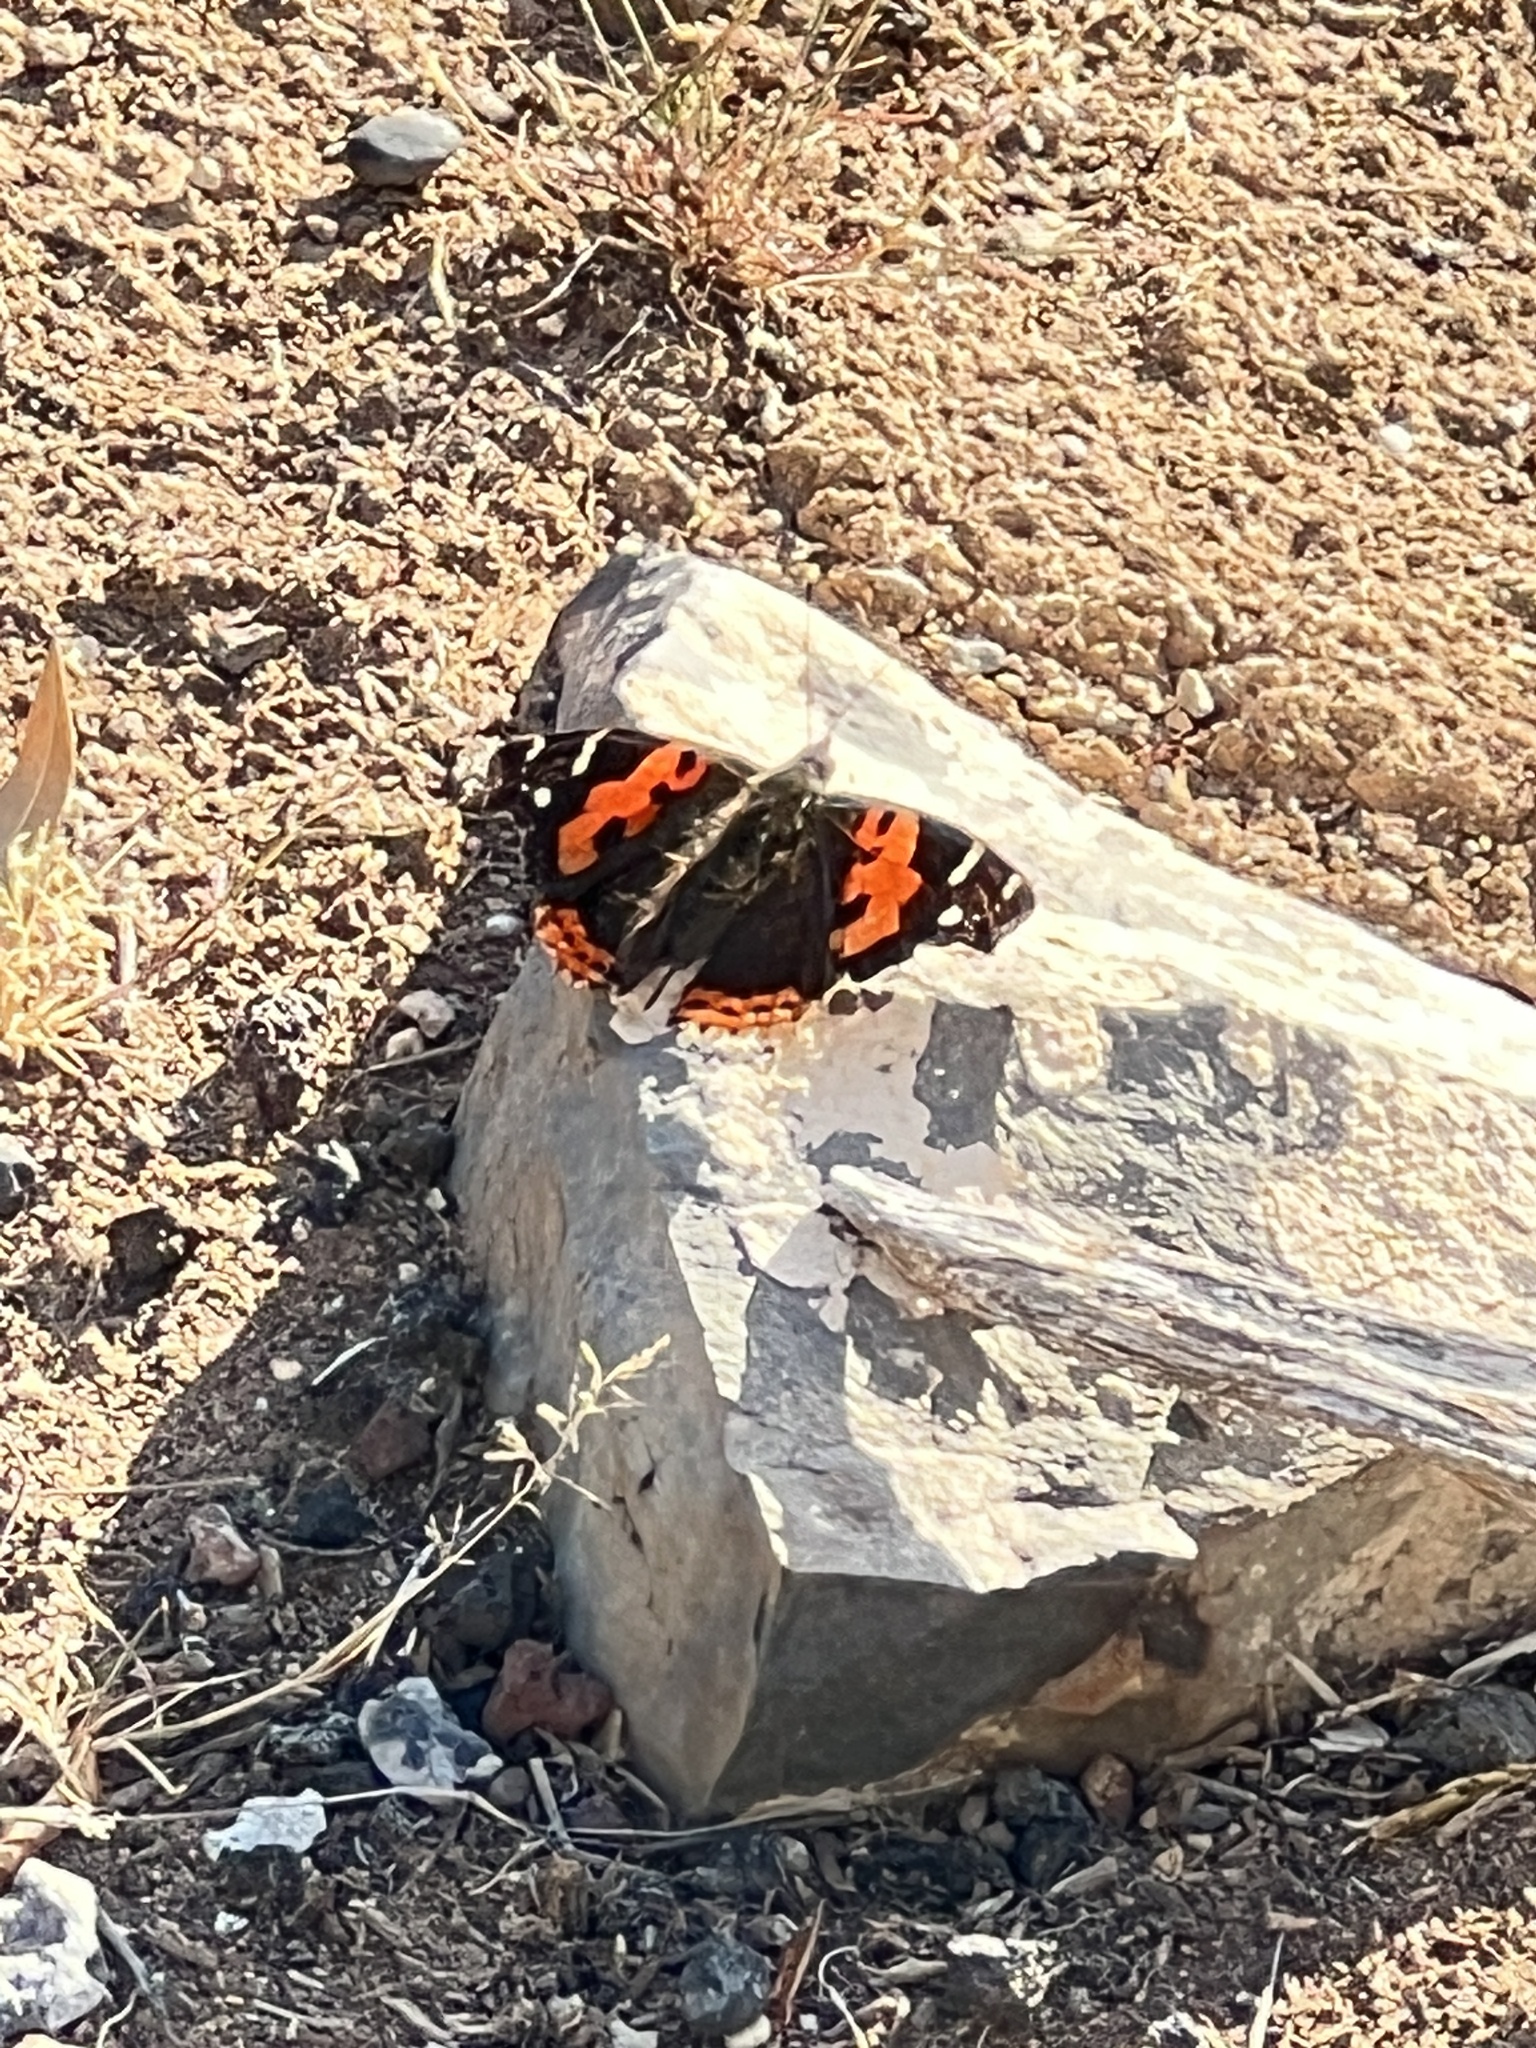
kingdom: Animalia
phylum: Arthropoda
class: Insecta
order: Lepidoptera
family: Nymphalidae
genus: Vanessa
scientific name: Vanessa vulcania
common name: Canary red admiral
